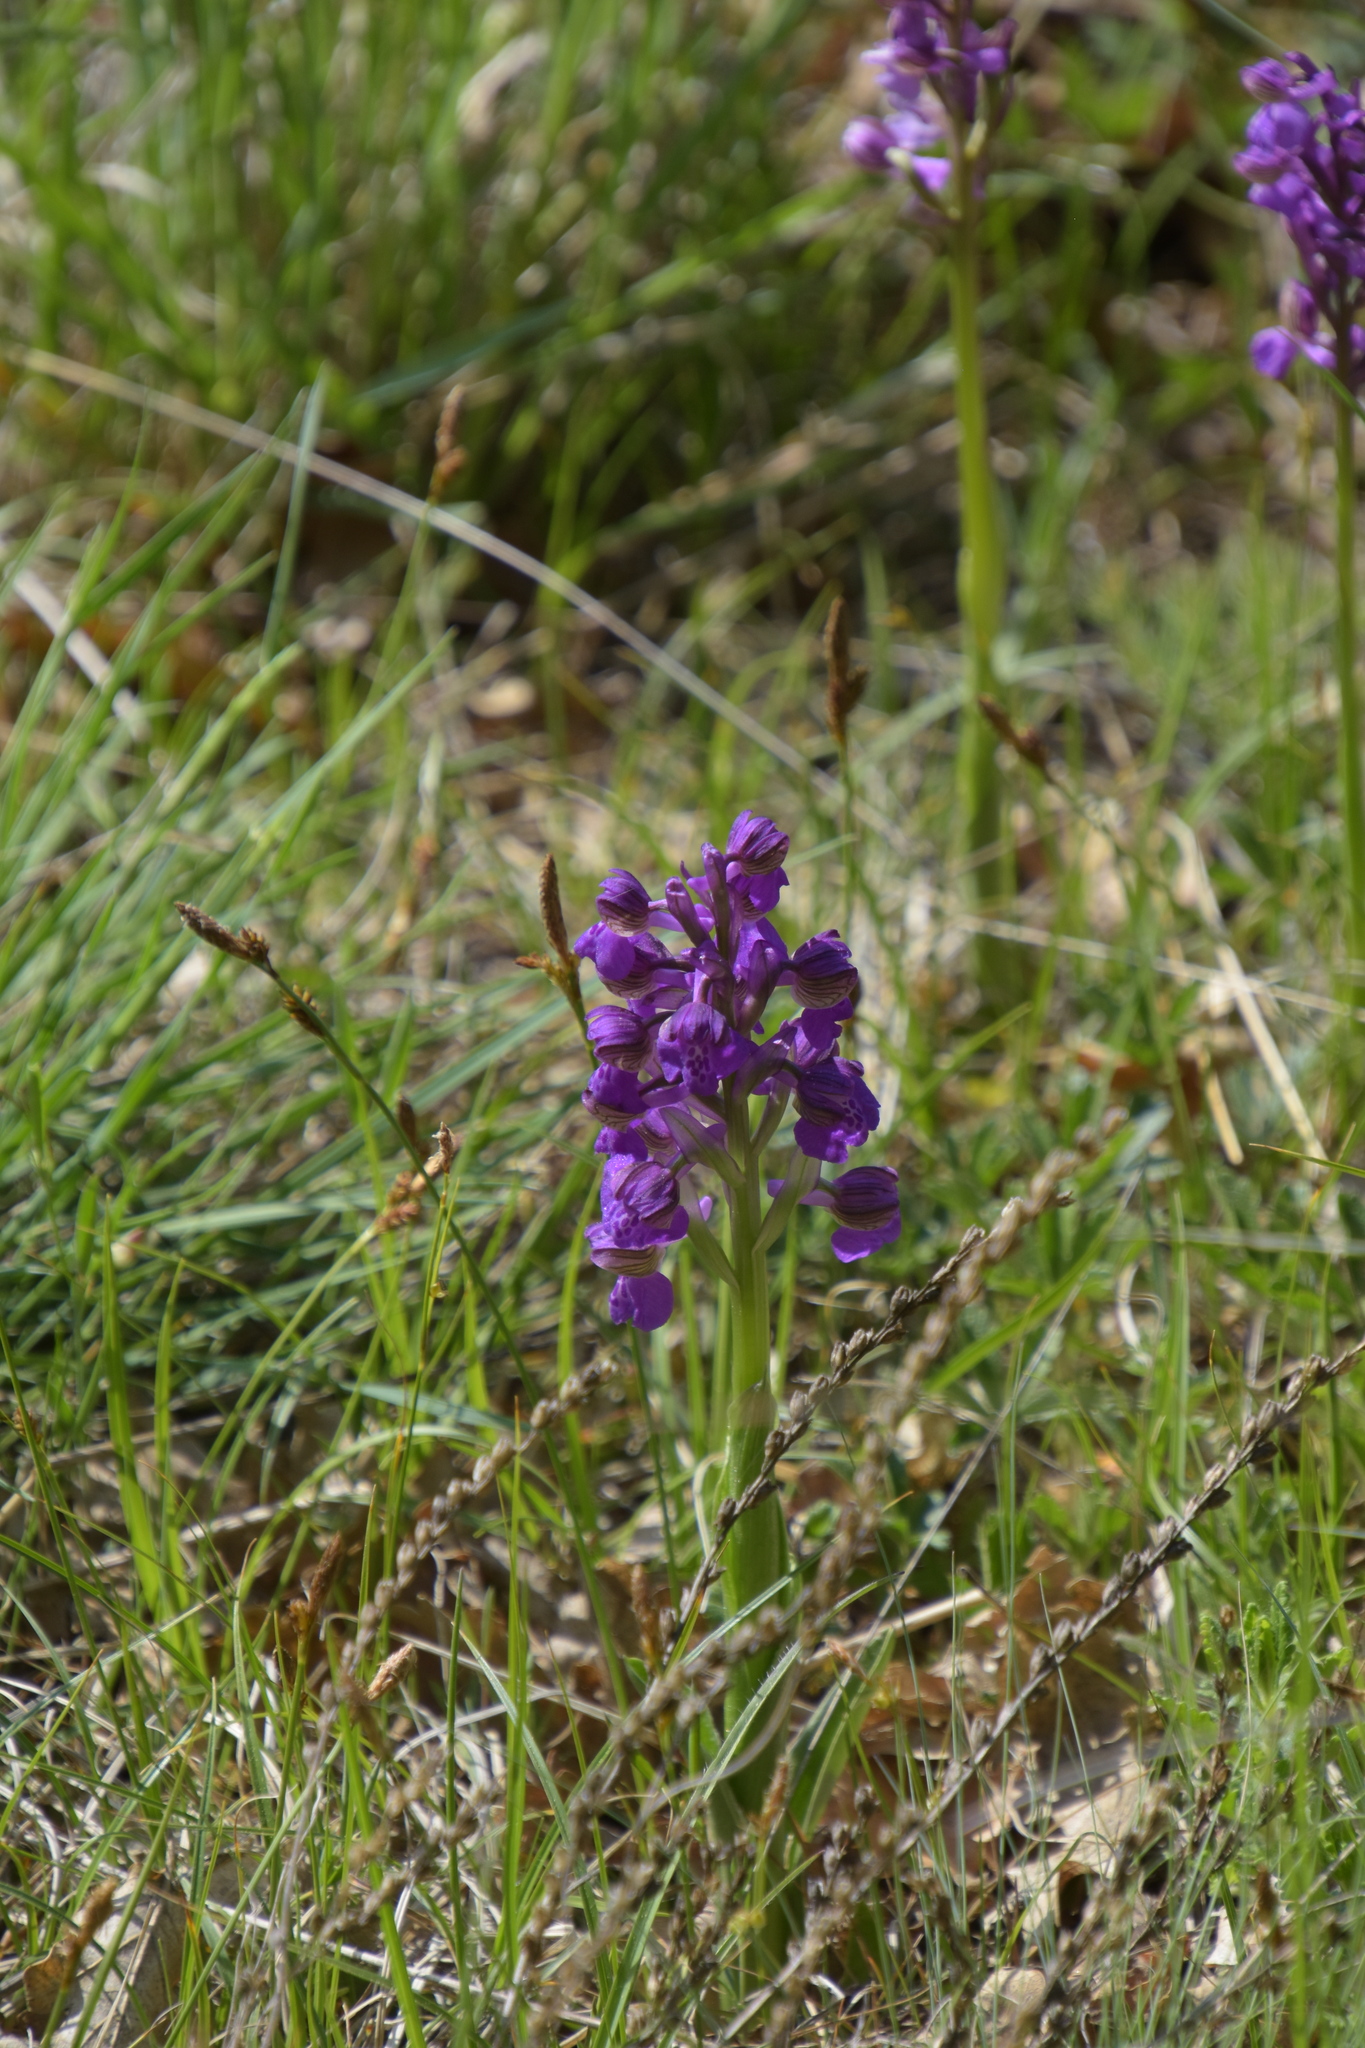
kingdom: Plantae
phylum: Tracheophyta
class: Liliopsida
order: Asparagales
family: Orchidaceae
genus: Anacamptis
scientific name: Anacamptis morio
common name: Green-winged orchid
